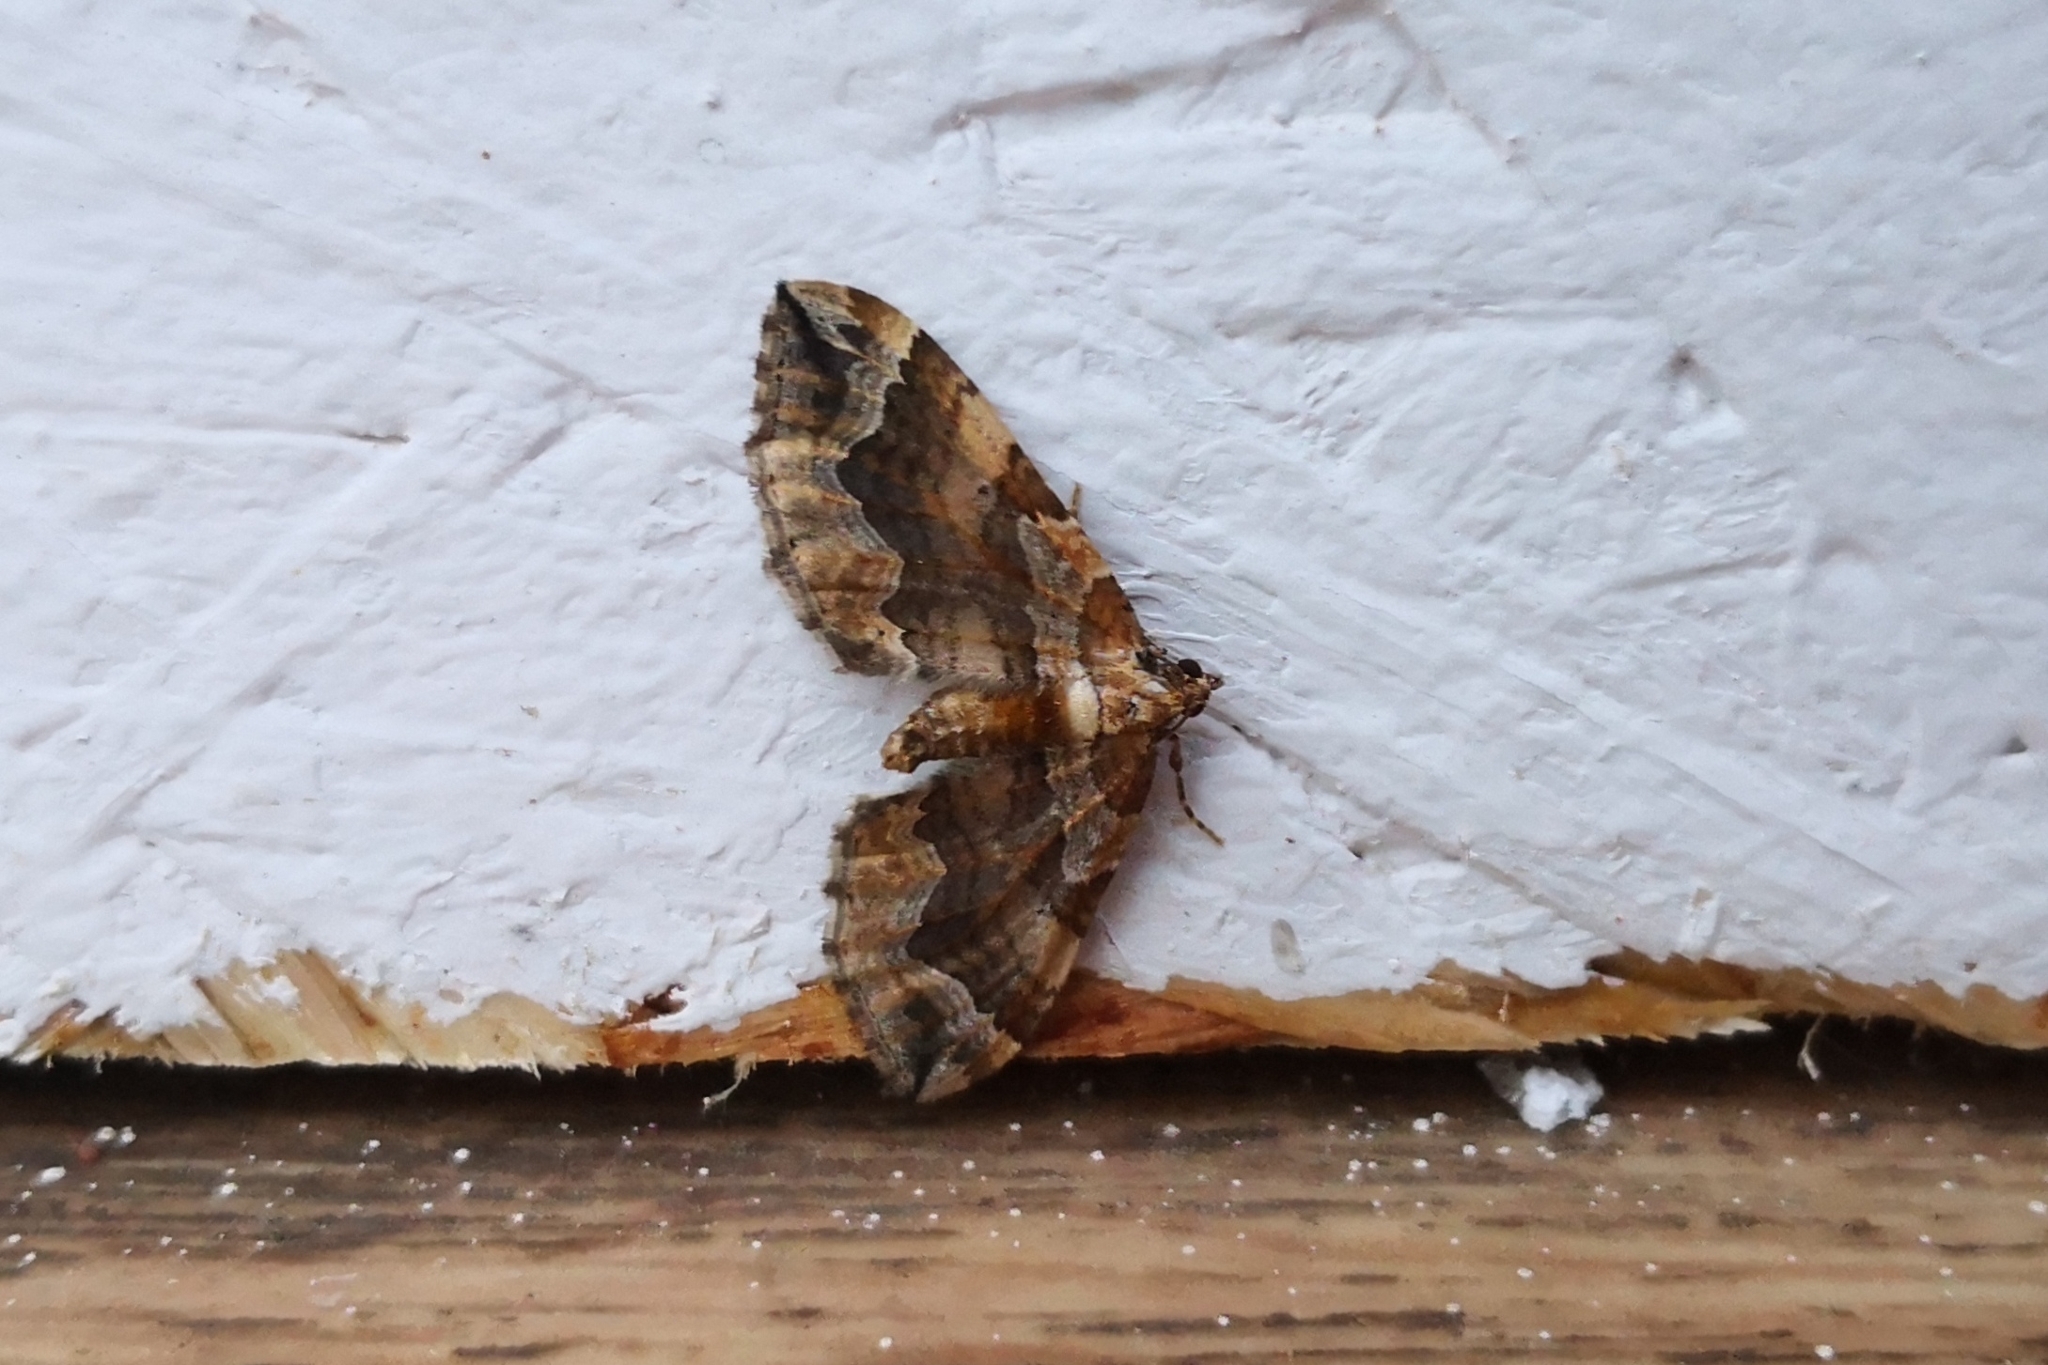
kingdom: Animalia
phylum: Arthropoda
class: Insecta
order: Lepidoptera
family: Geometridae
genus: Pelurga
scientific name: Pelurga comitata
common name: Dark spinach
